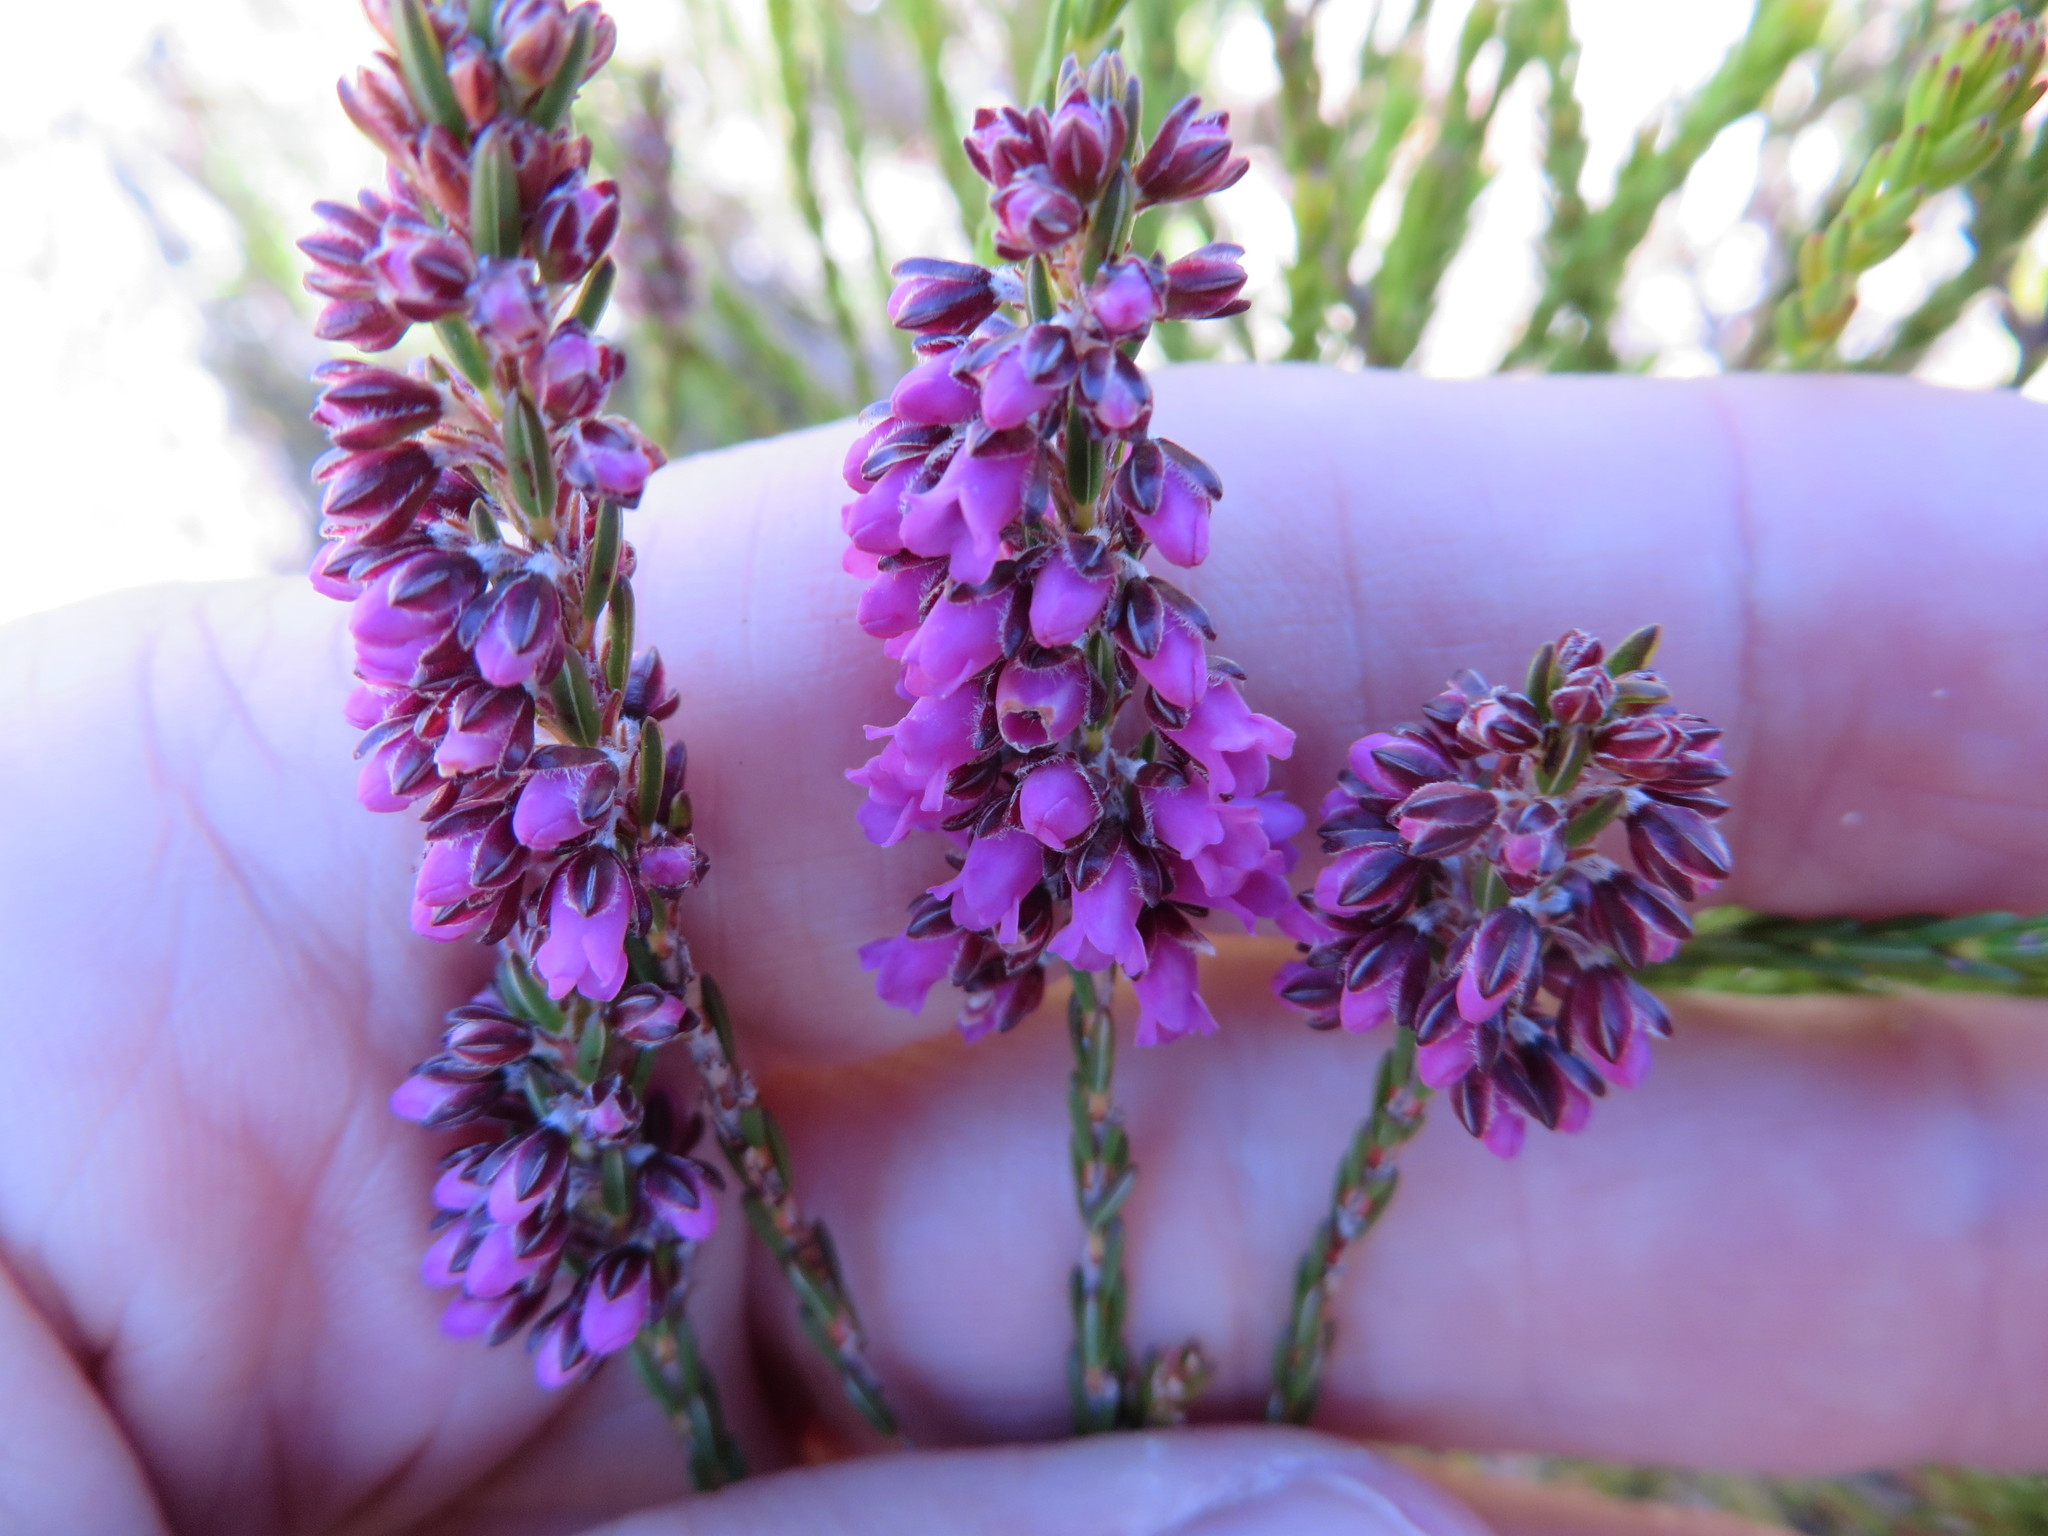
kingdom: Plantae
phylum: Tracheophyta
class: Magnoliopsida
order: Ericales
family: Ericaceae
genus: Erica
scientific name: Erica pulchella
